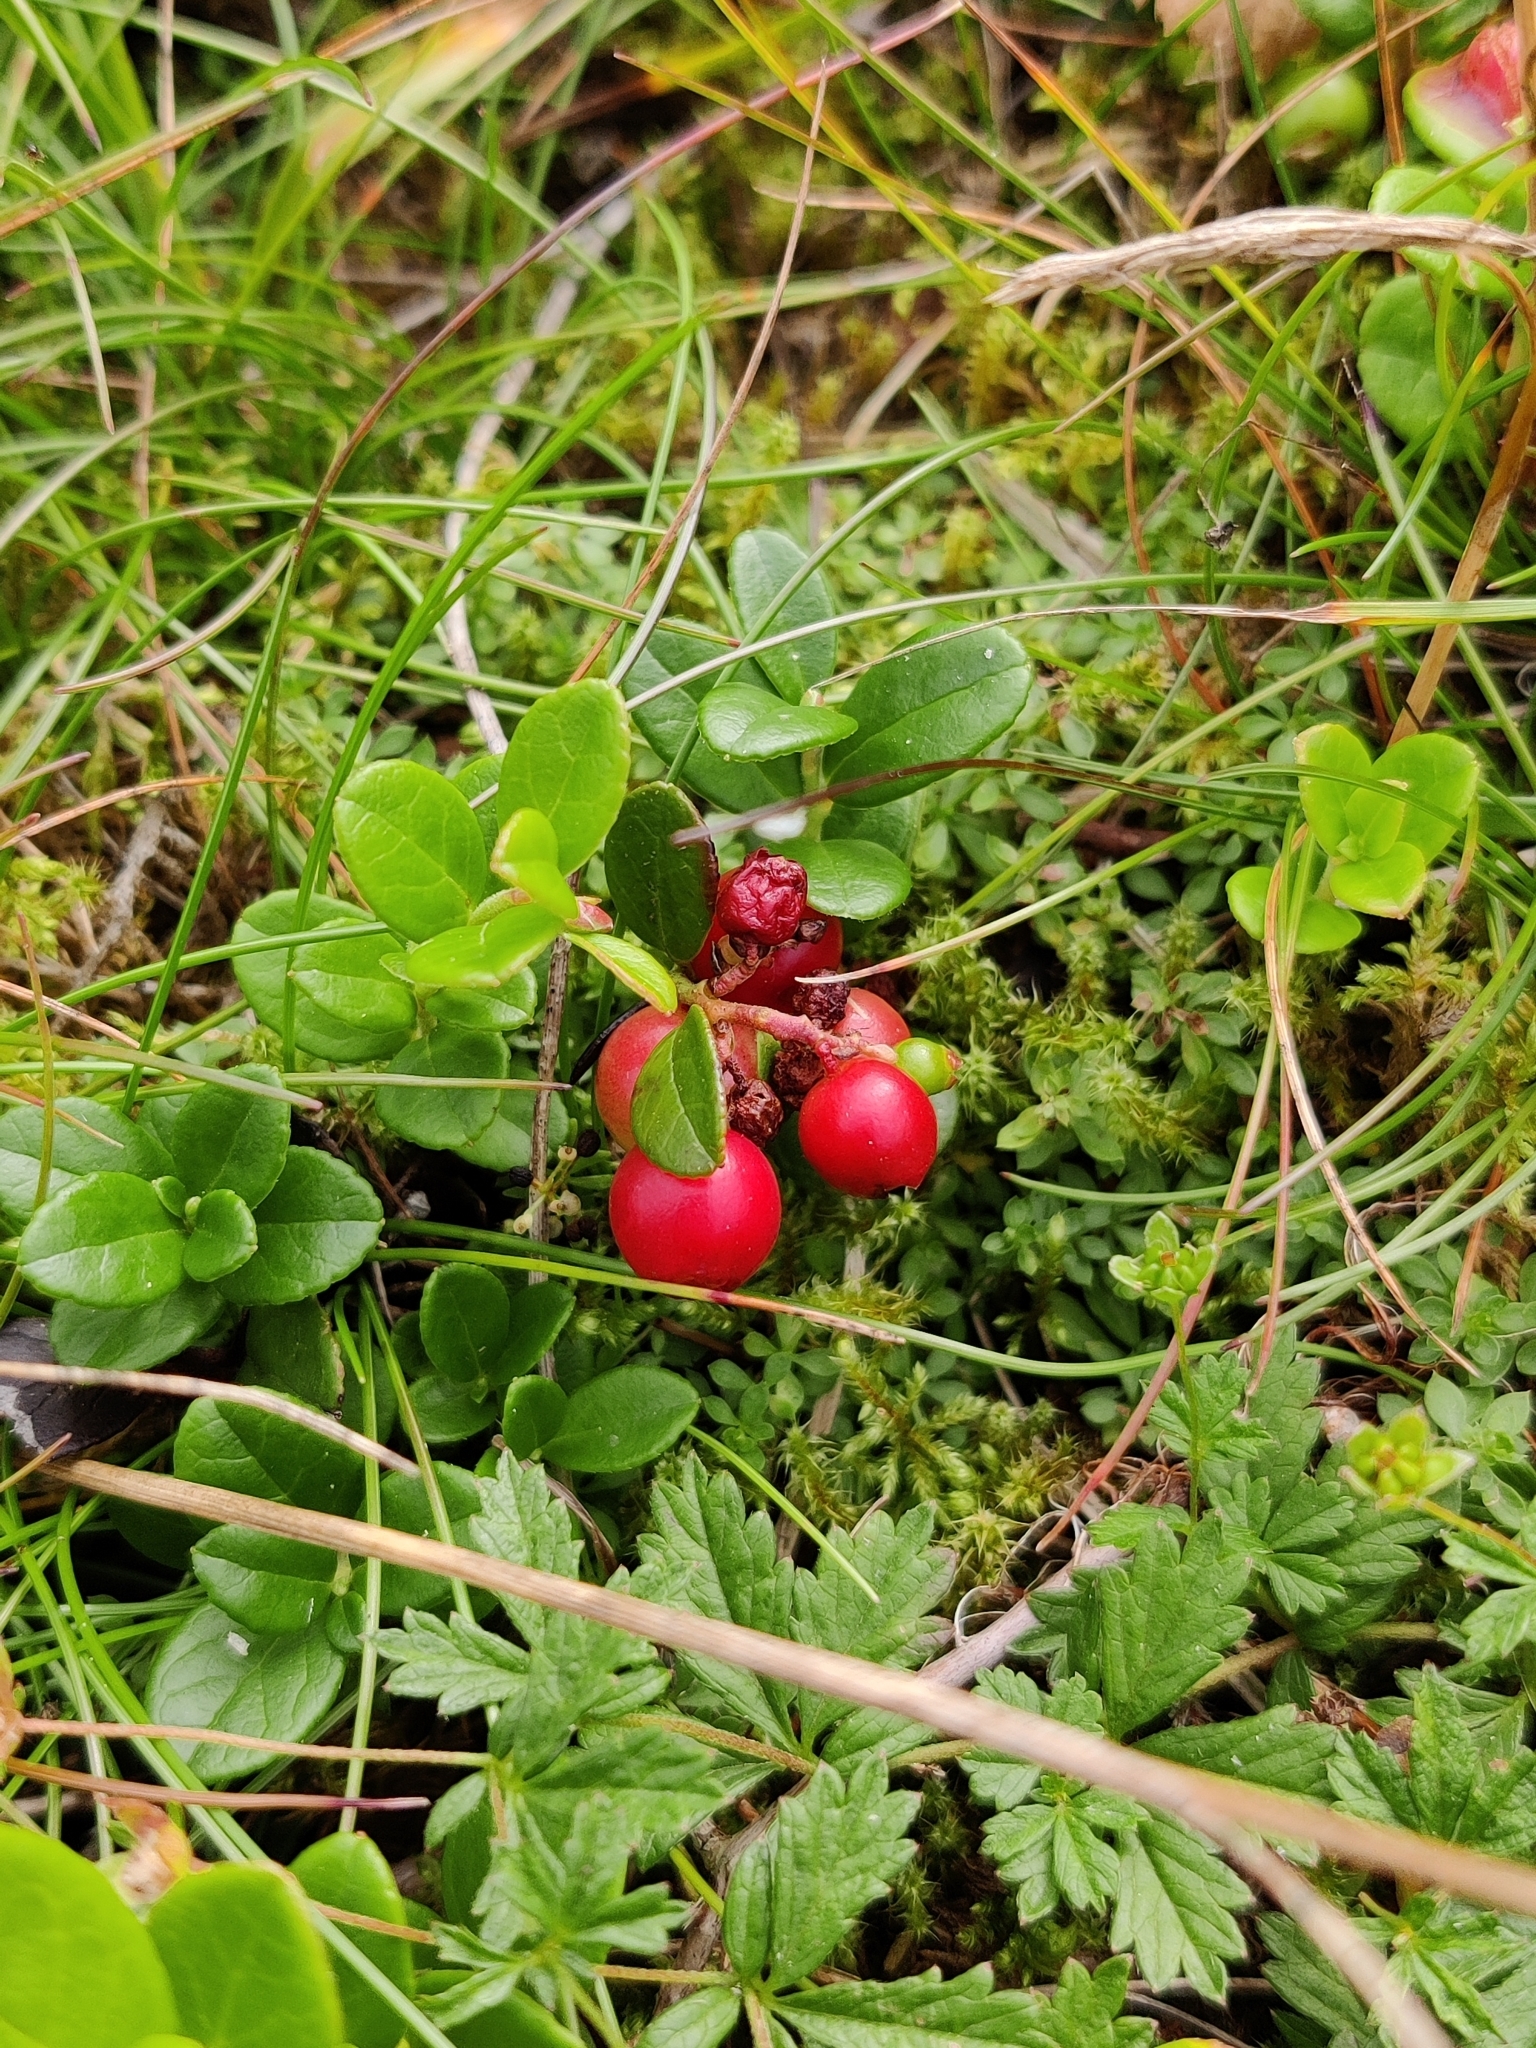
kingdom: Plantae
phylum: Tracheophyta
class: Magnoliopsida
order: Ericales
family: Ericaceae
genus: Vaccinium
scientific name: Vaccinium vitis-idaea
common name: Cowberry
